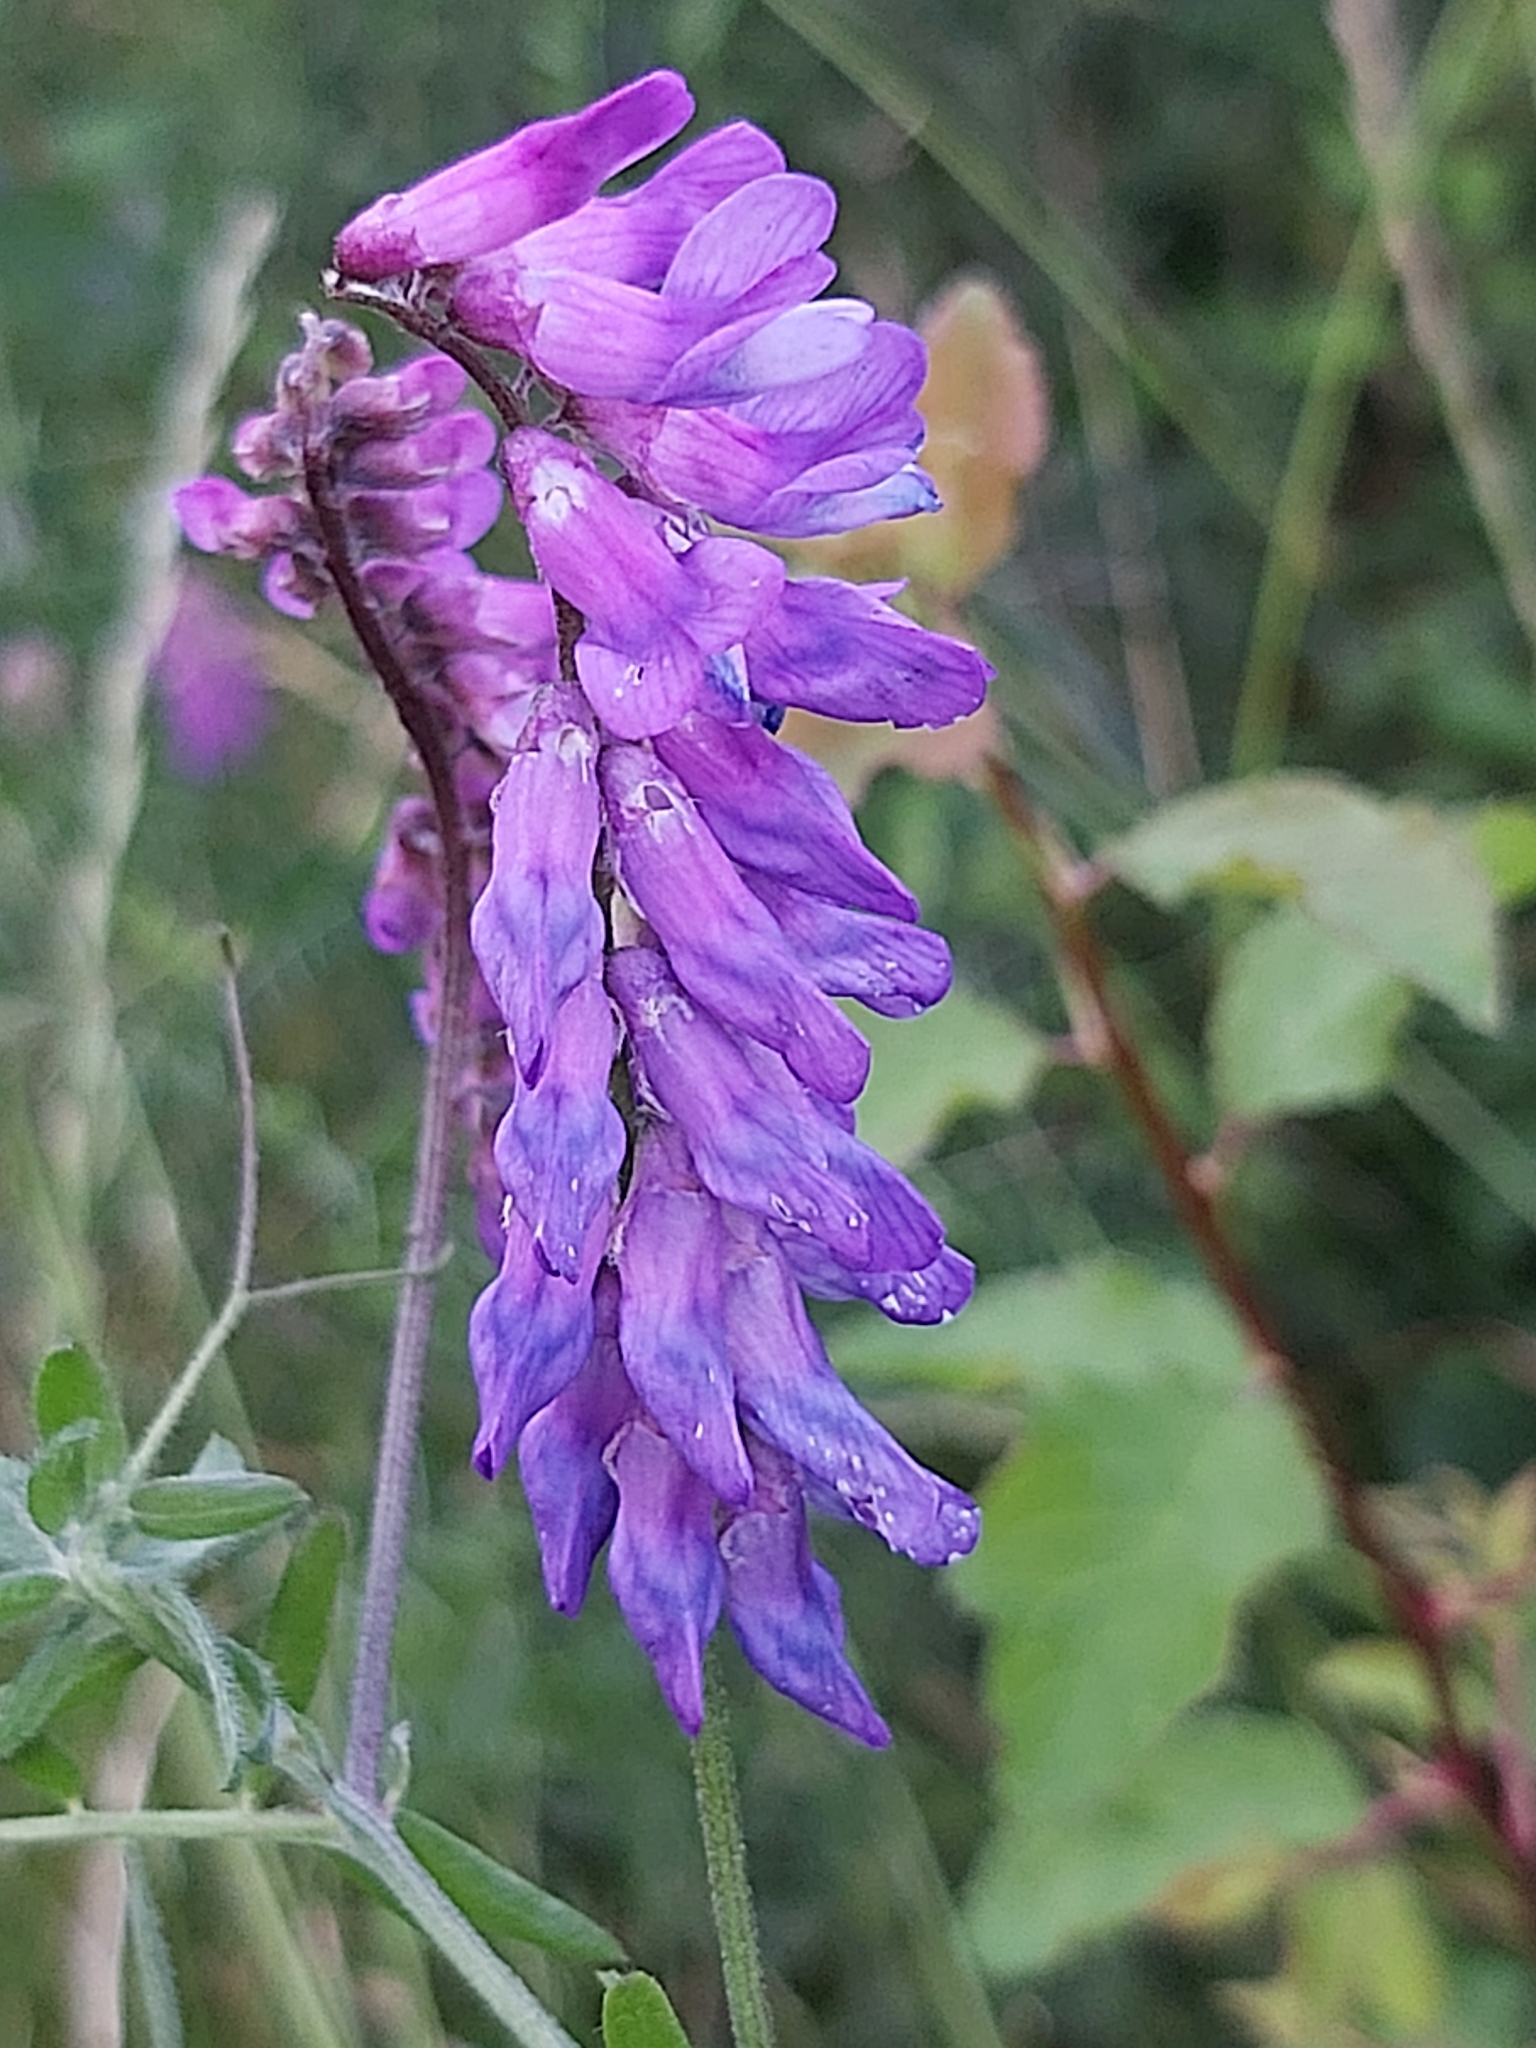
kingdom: Plantae
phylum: Tracheophyta
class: Magnoliopsida
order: Fabales
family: Fabaceae
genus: Vicia
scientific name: Vicia cracca
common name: Bird vetch
